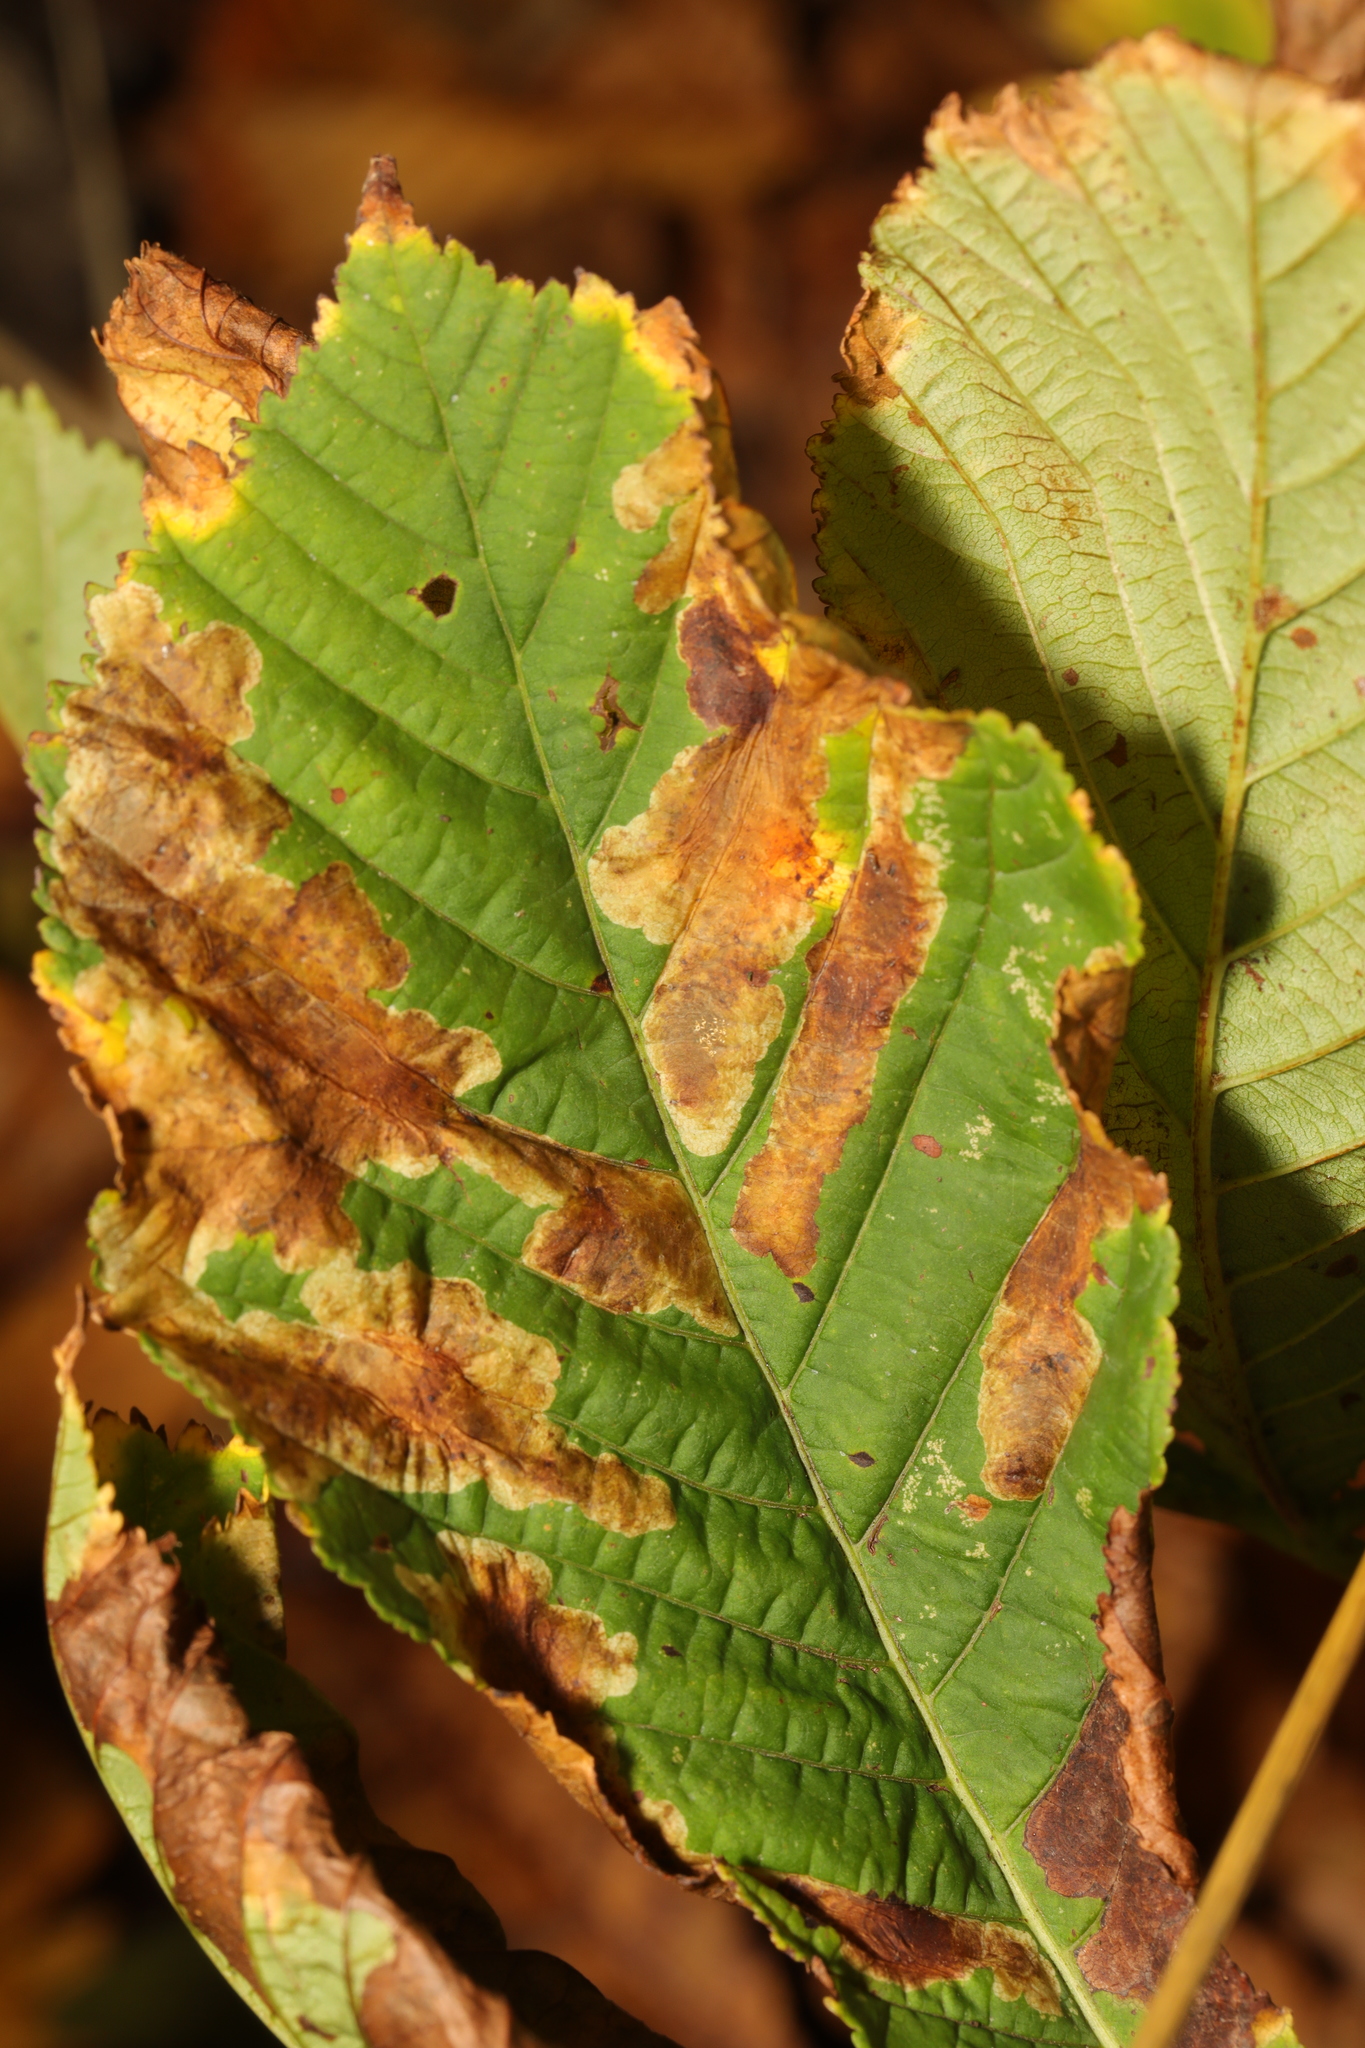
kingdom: Animalia
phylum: Arthropoda
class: Insecta
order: Lepidoptera
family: Gracillariidae
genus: Cameraria
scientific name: Cameraria ohridella
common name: Horse-chestnut leaf-miner
